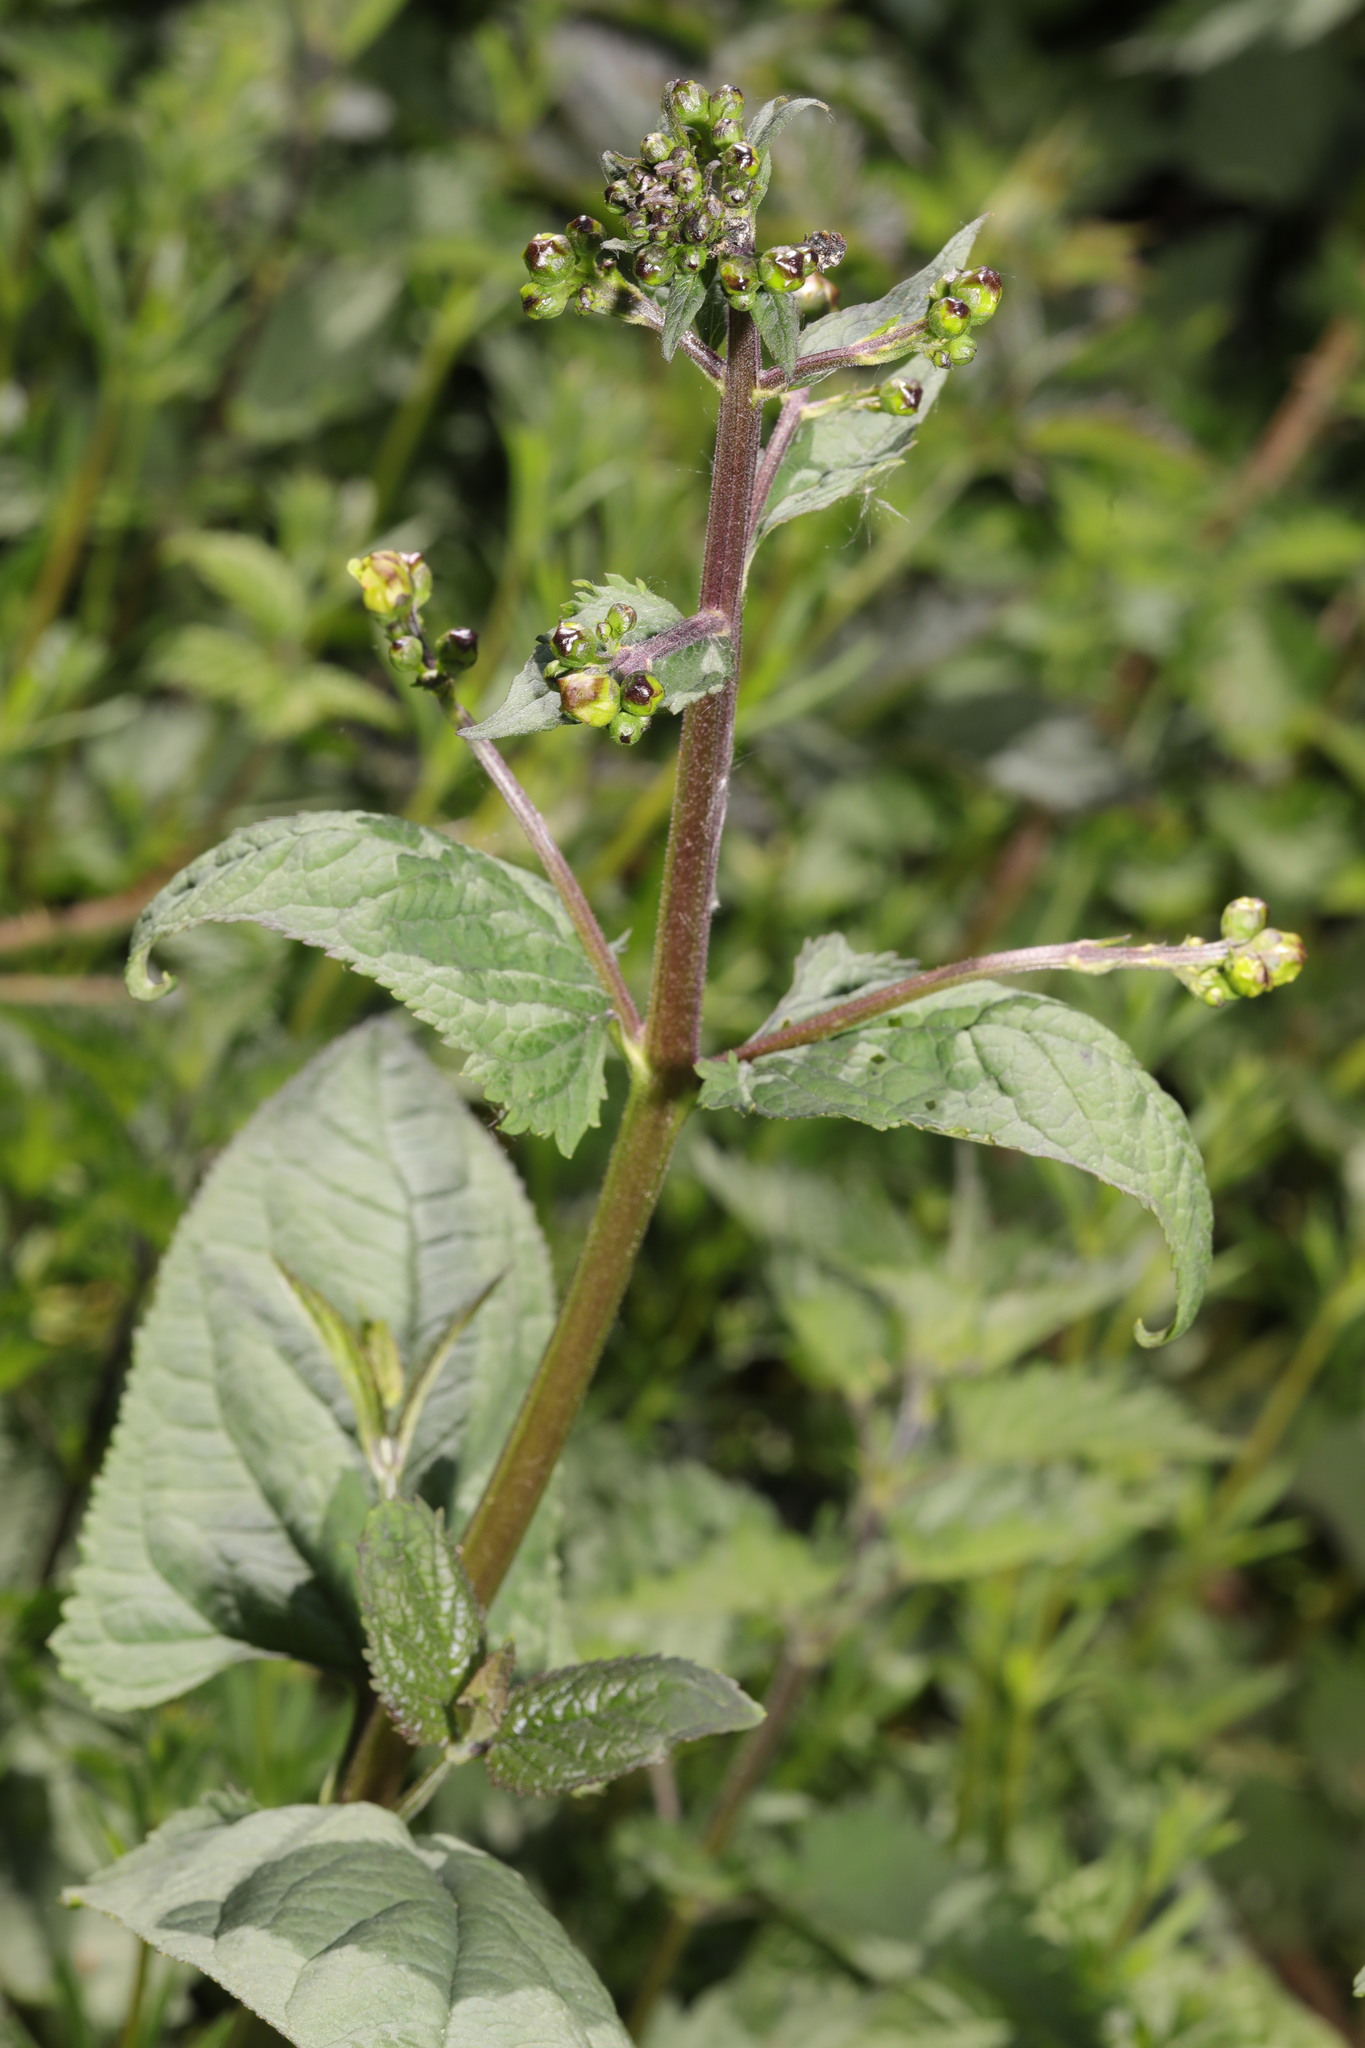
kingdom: Plantae
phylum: Tracheophyta
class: Magnoliopsida
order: Lamiales
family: Scrophulariaceae
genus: Scrophularia
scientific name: Scrophularia nodosa
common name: Common figwort
